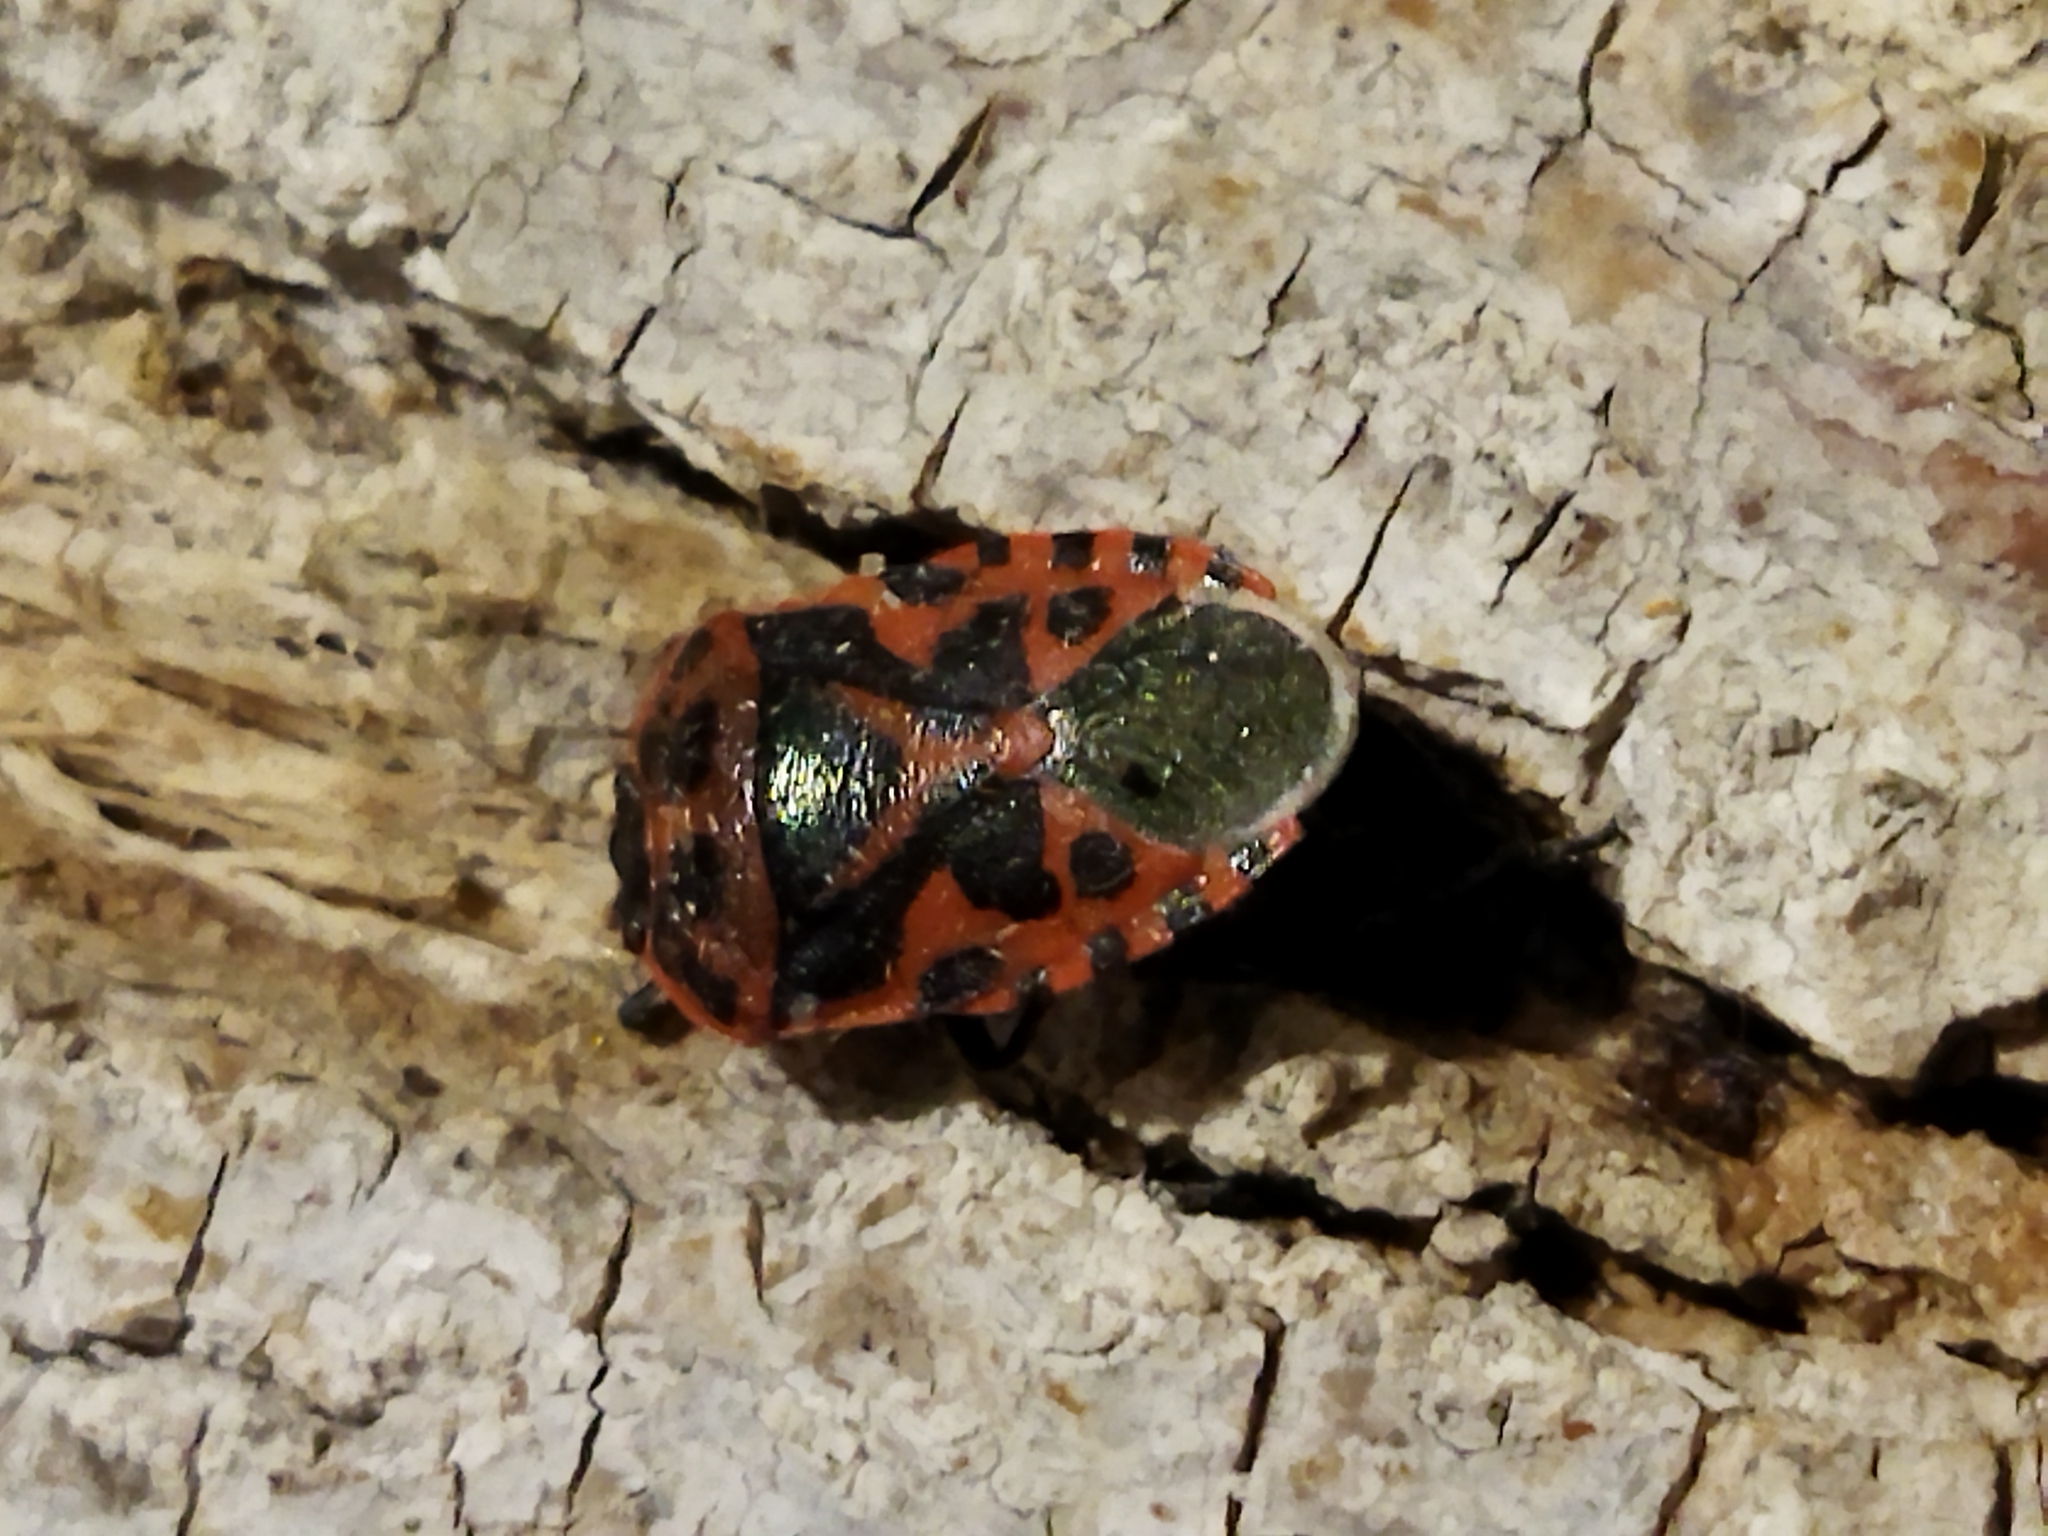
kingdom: Animalia
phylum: Arthropoda
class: Insecta
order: Hemiptera
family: Pentatomidae
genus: Eurydema
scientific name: Eurydema ventralis
